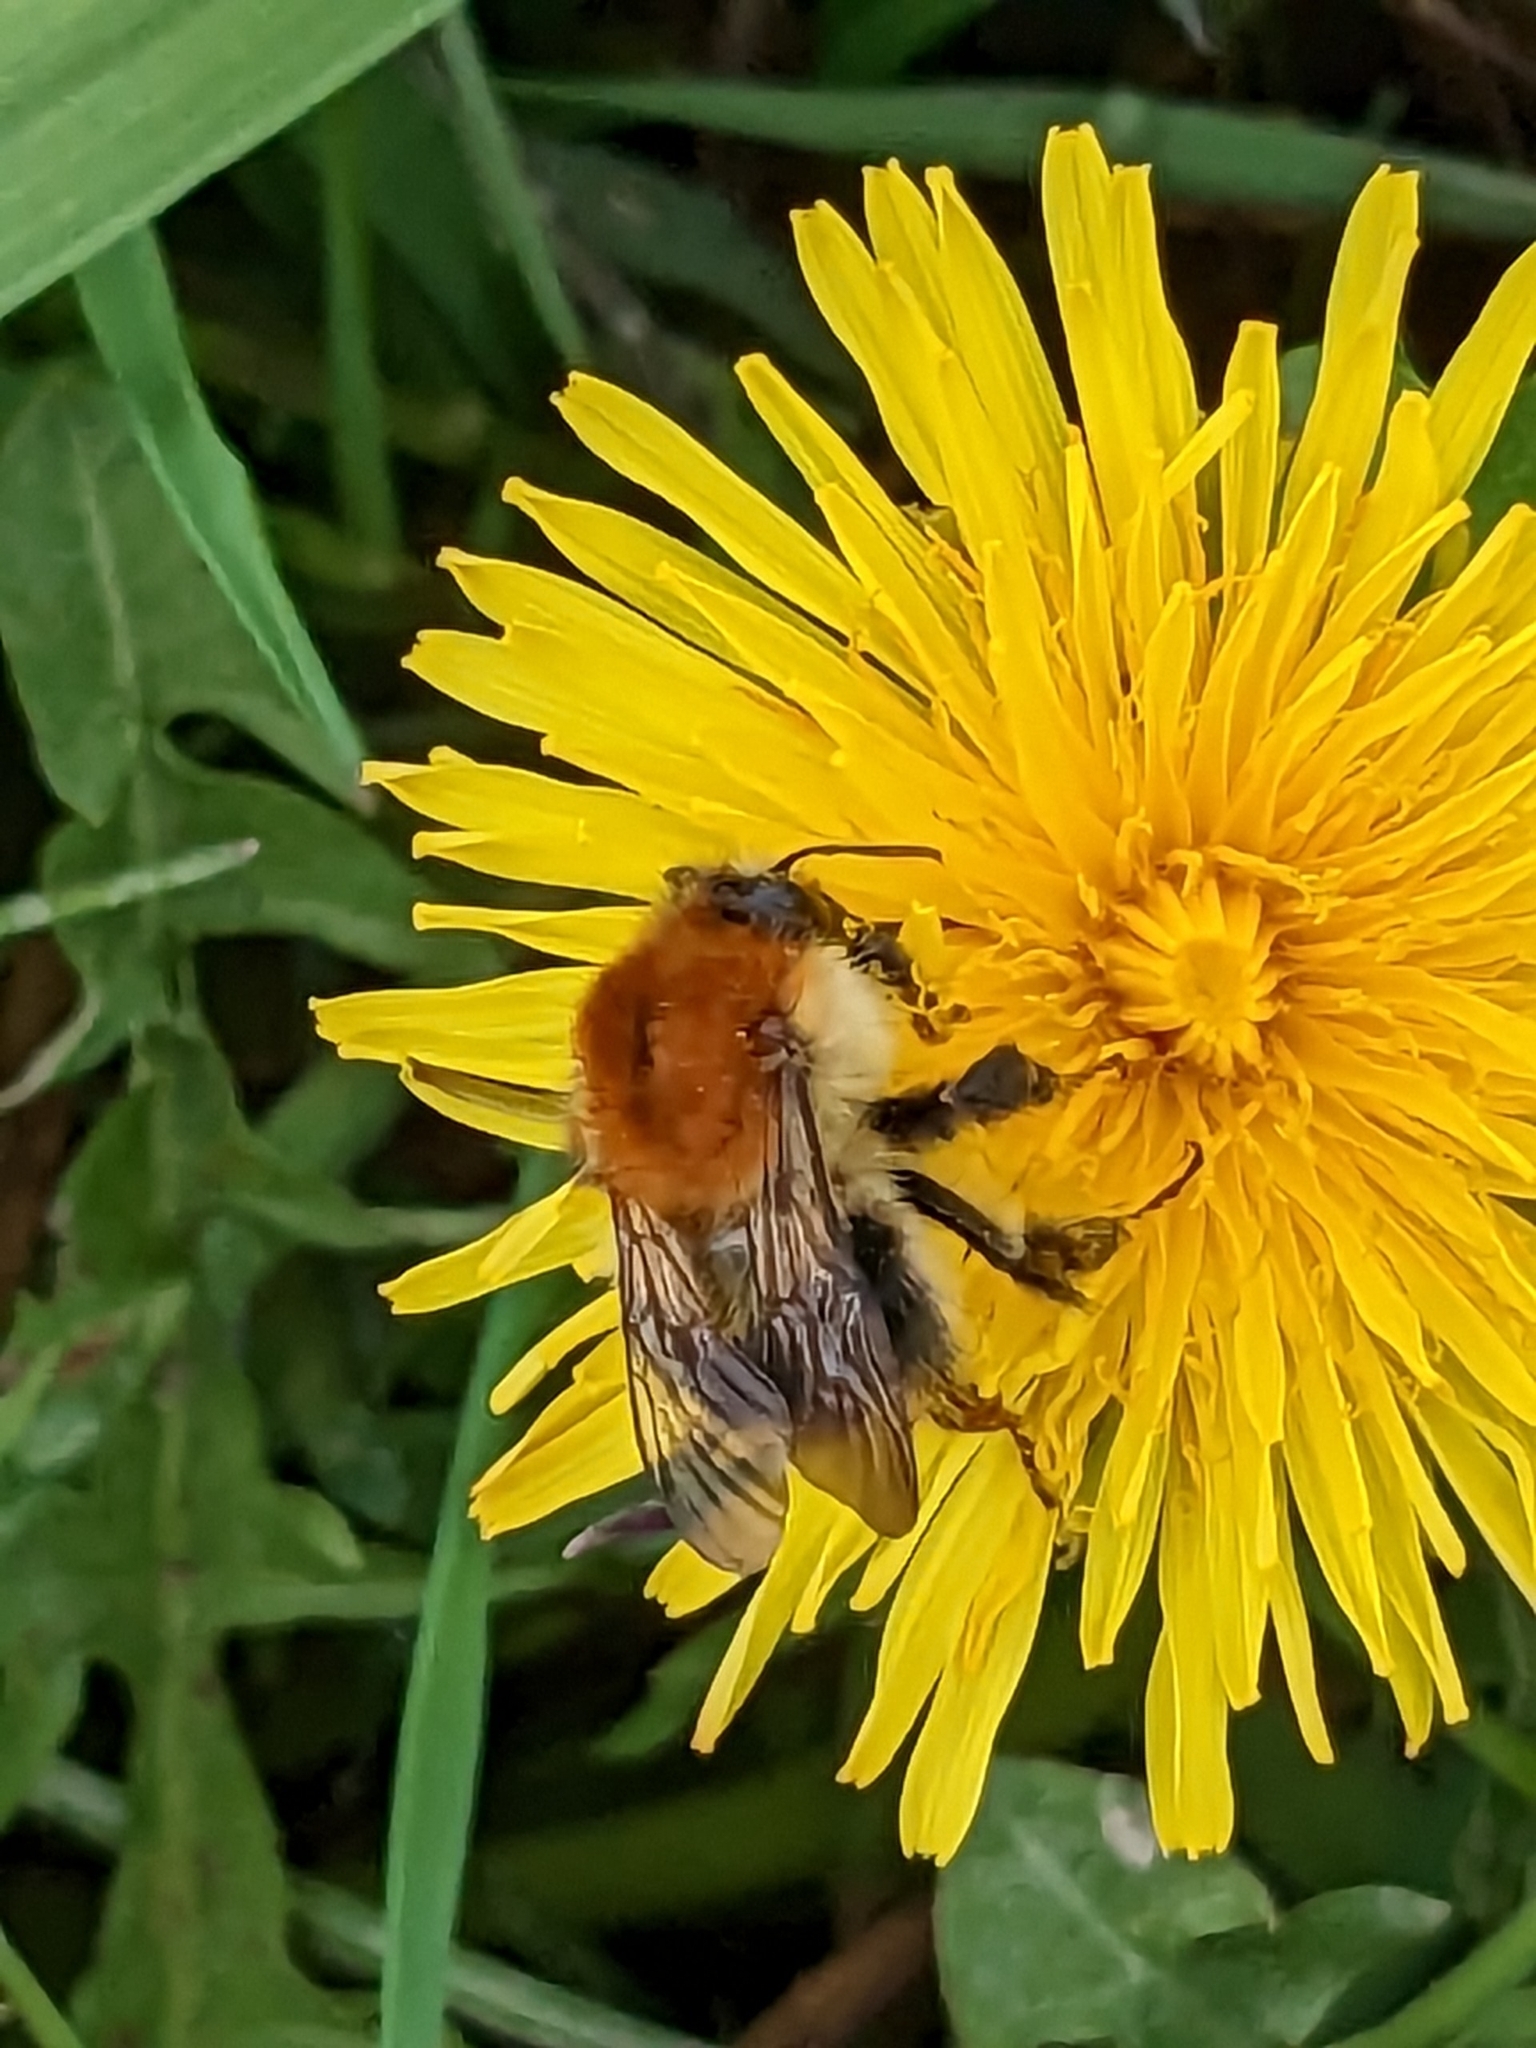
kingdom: Animalia
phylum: Arthropoda
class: Insecta
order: Hymenoptera
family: Apidae
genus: Bombus
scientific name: Bombus pascuorum
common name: Common carder bee
